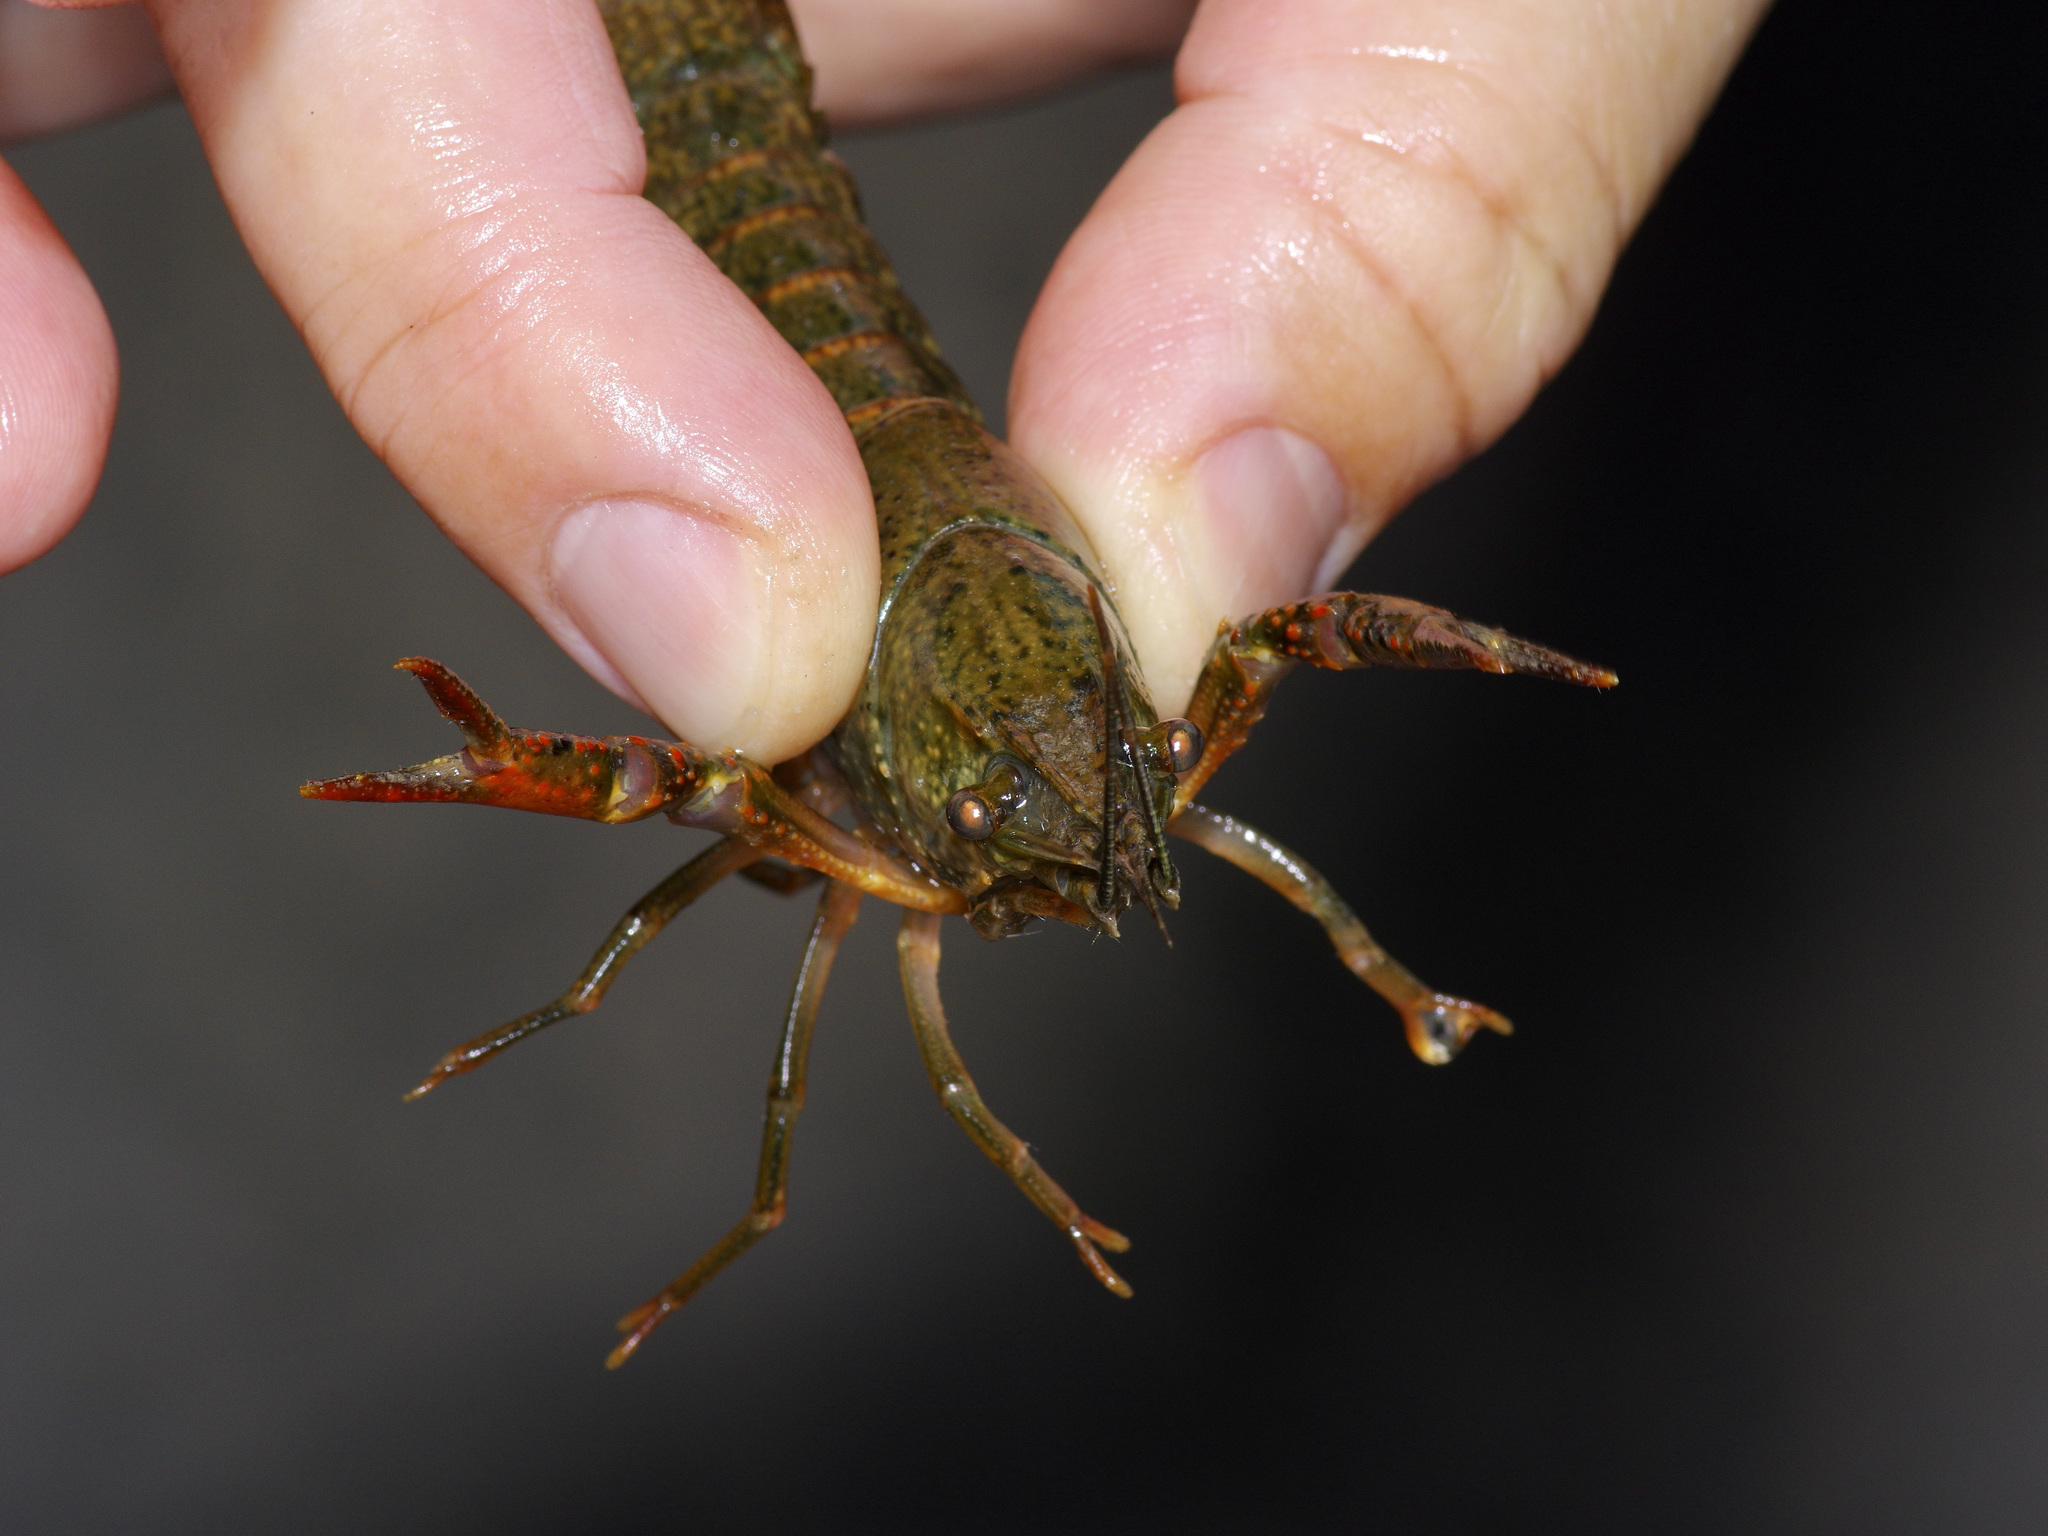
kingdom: Animalia
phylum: Arthropoda
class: Malacostraca
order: Decapoda
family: Cambaridae
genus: Procambarus
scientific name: Procambarus clarkii
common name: Red swamp crayfish
